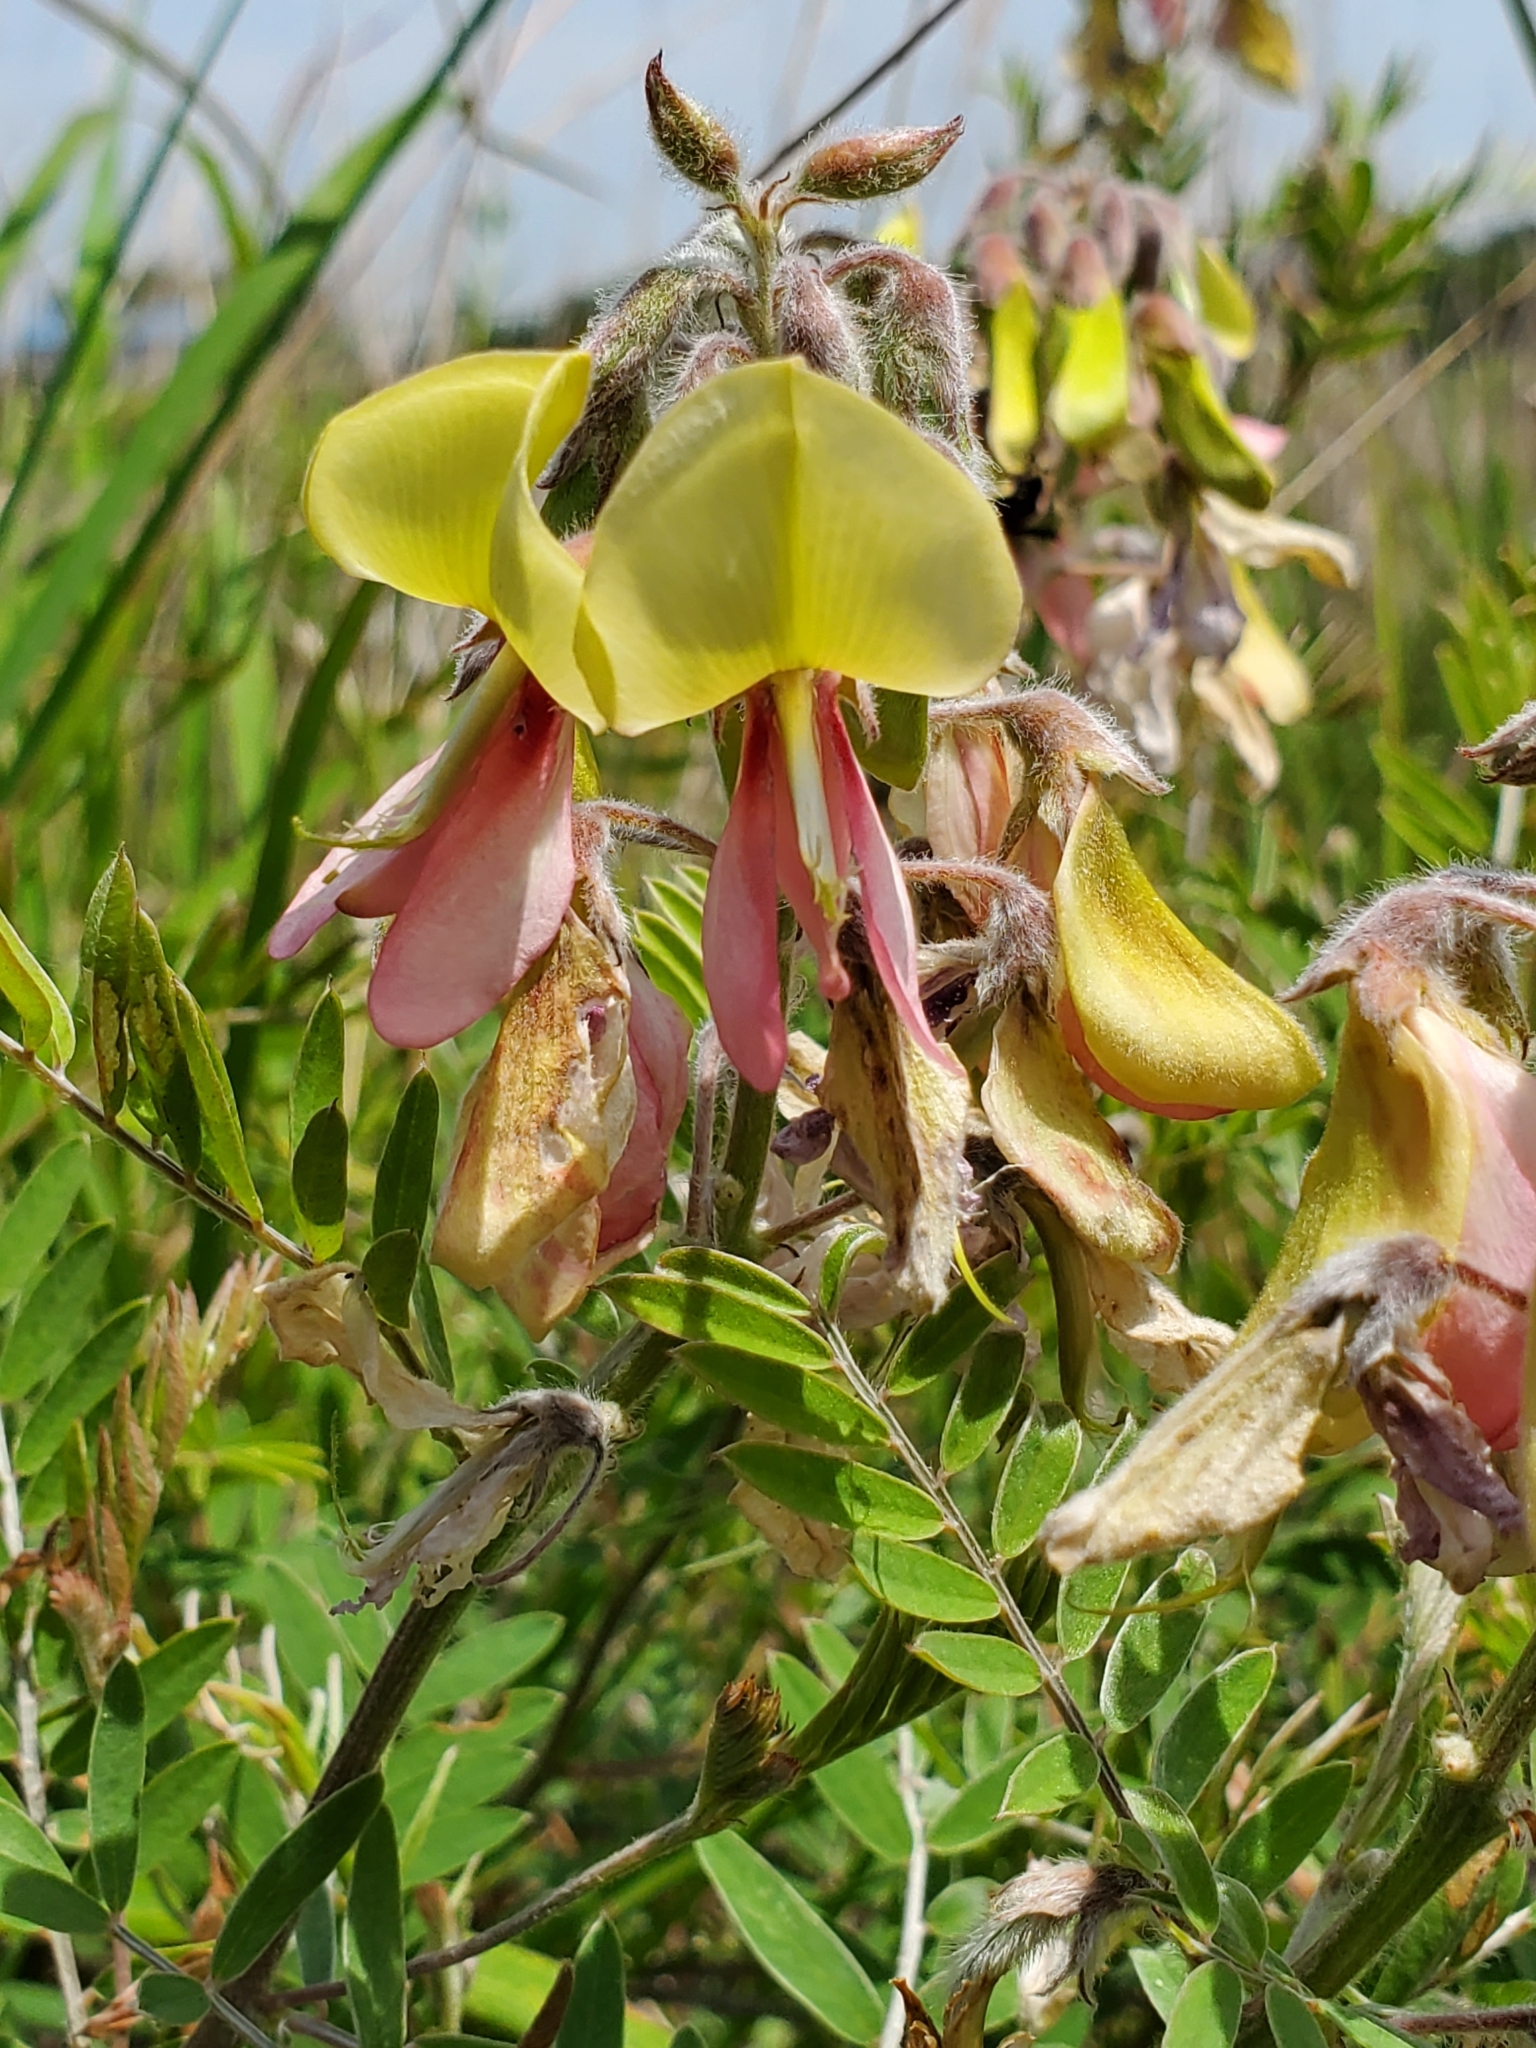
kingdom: Plantae
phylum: Tracheophyta
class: Magnoliopsida
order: Fabales
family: Fabaceae
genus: Tephrosia
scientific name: Tephrosia virginiana
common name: Rabbit-pea
